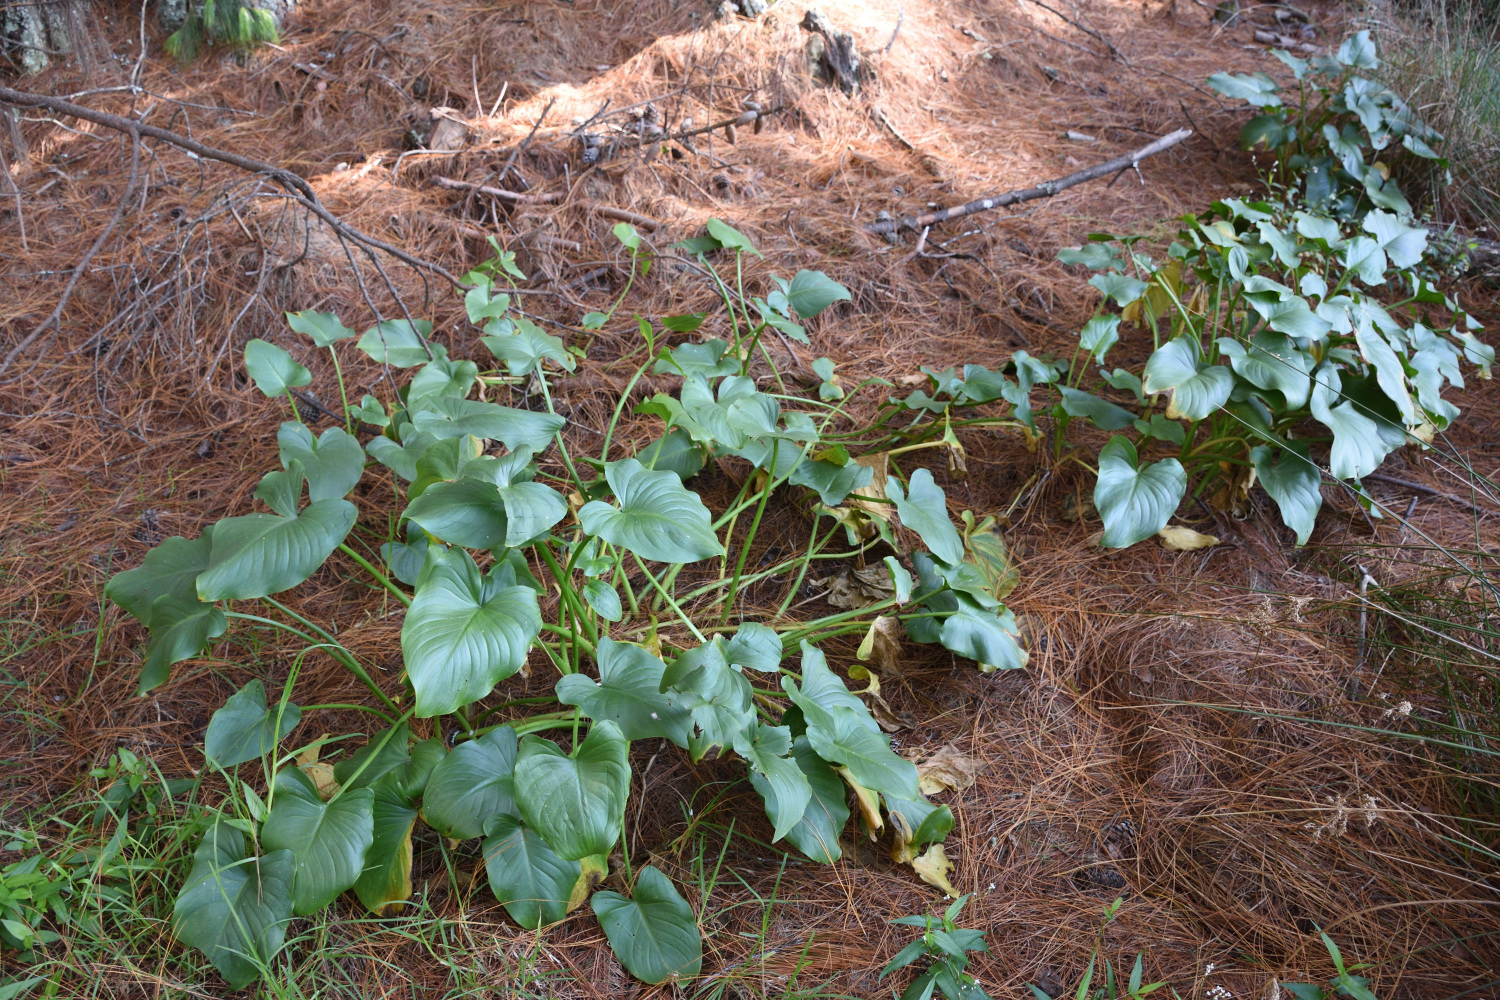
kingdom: Plantae
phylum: Tracheophyta
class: Liliopsida
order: Alismatales
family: Araceae
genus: Zantedeschia
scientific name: Zantedeschia aethiopica
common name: Altar-lily
